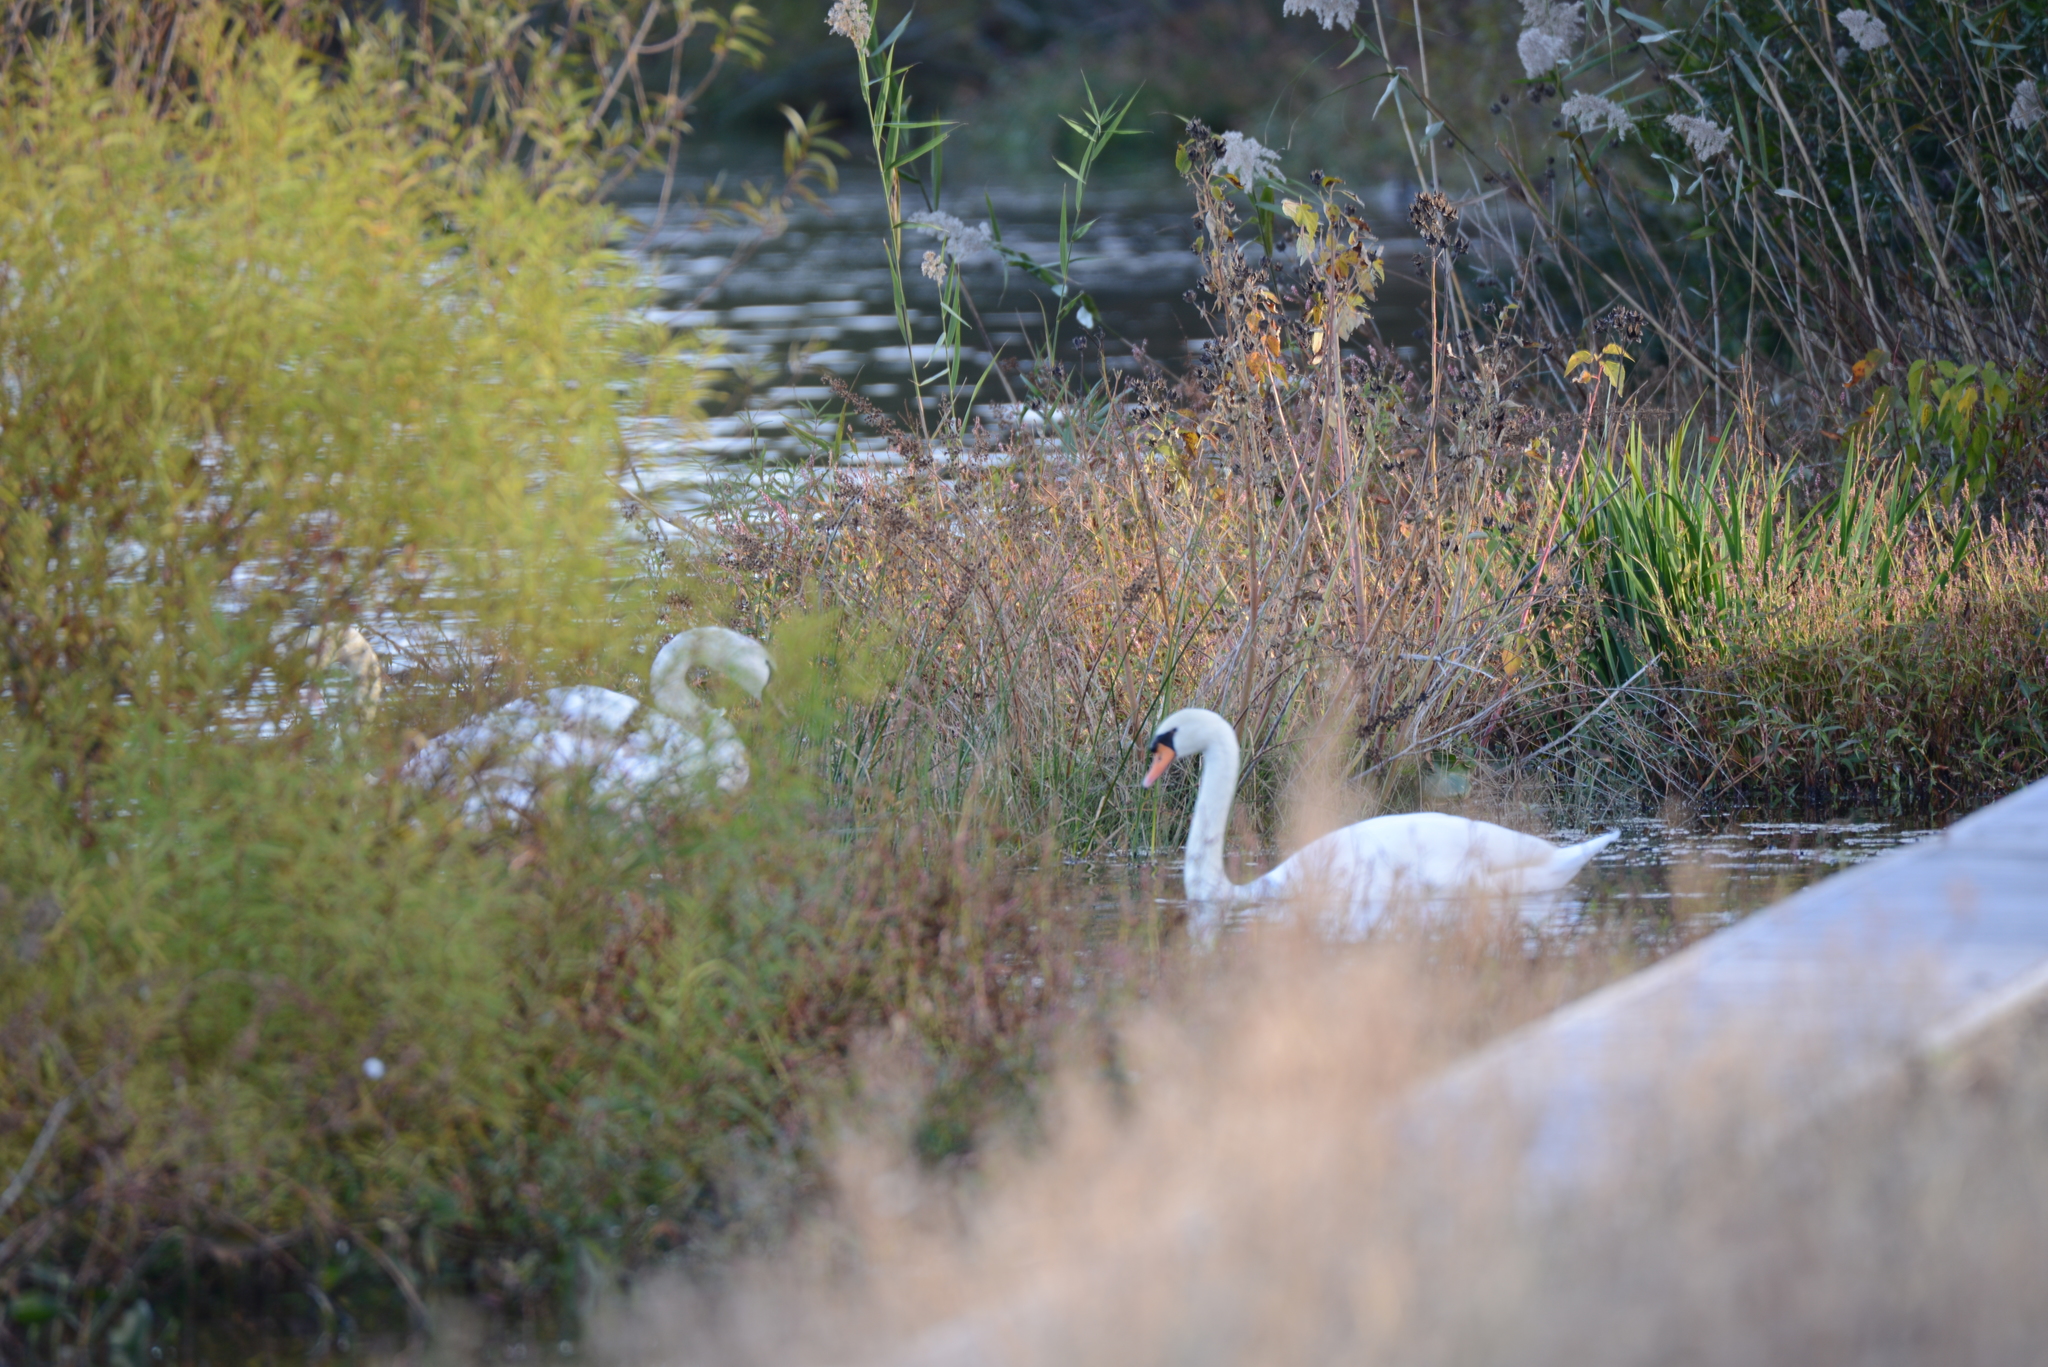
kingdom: Animalia
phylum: Chordata
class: Aves
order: Anseriformes
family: Anatidae
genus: Cygnus
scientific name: Cygnus olor
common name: Mute swan
